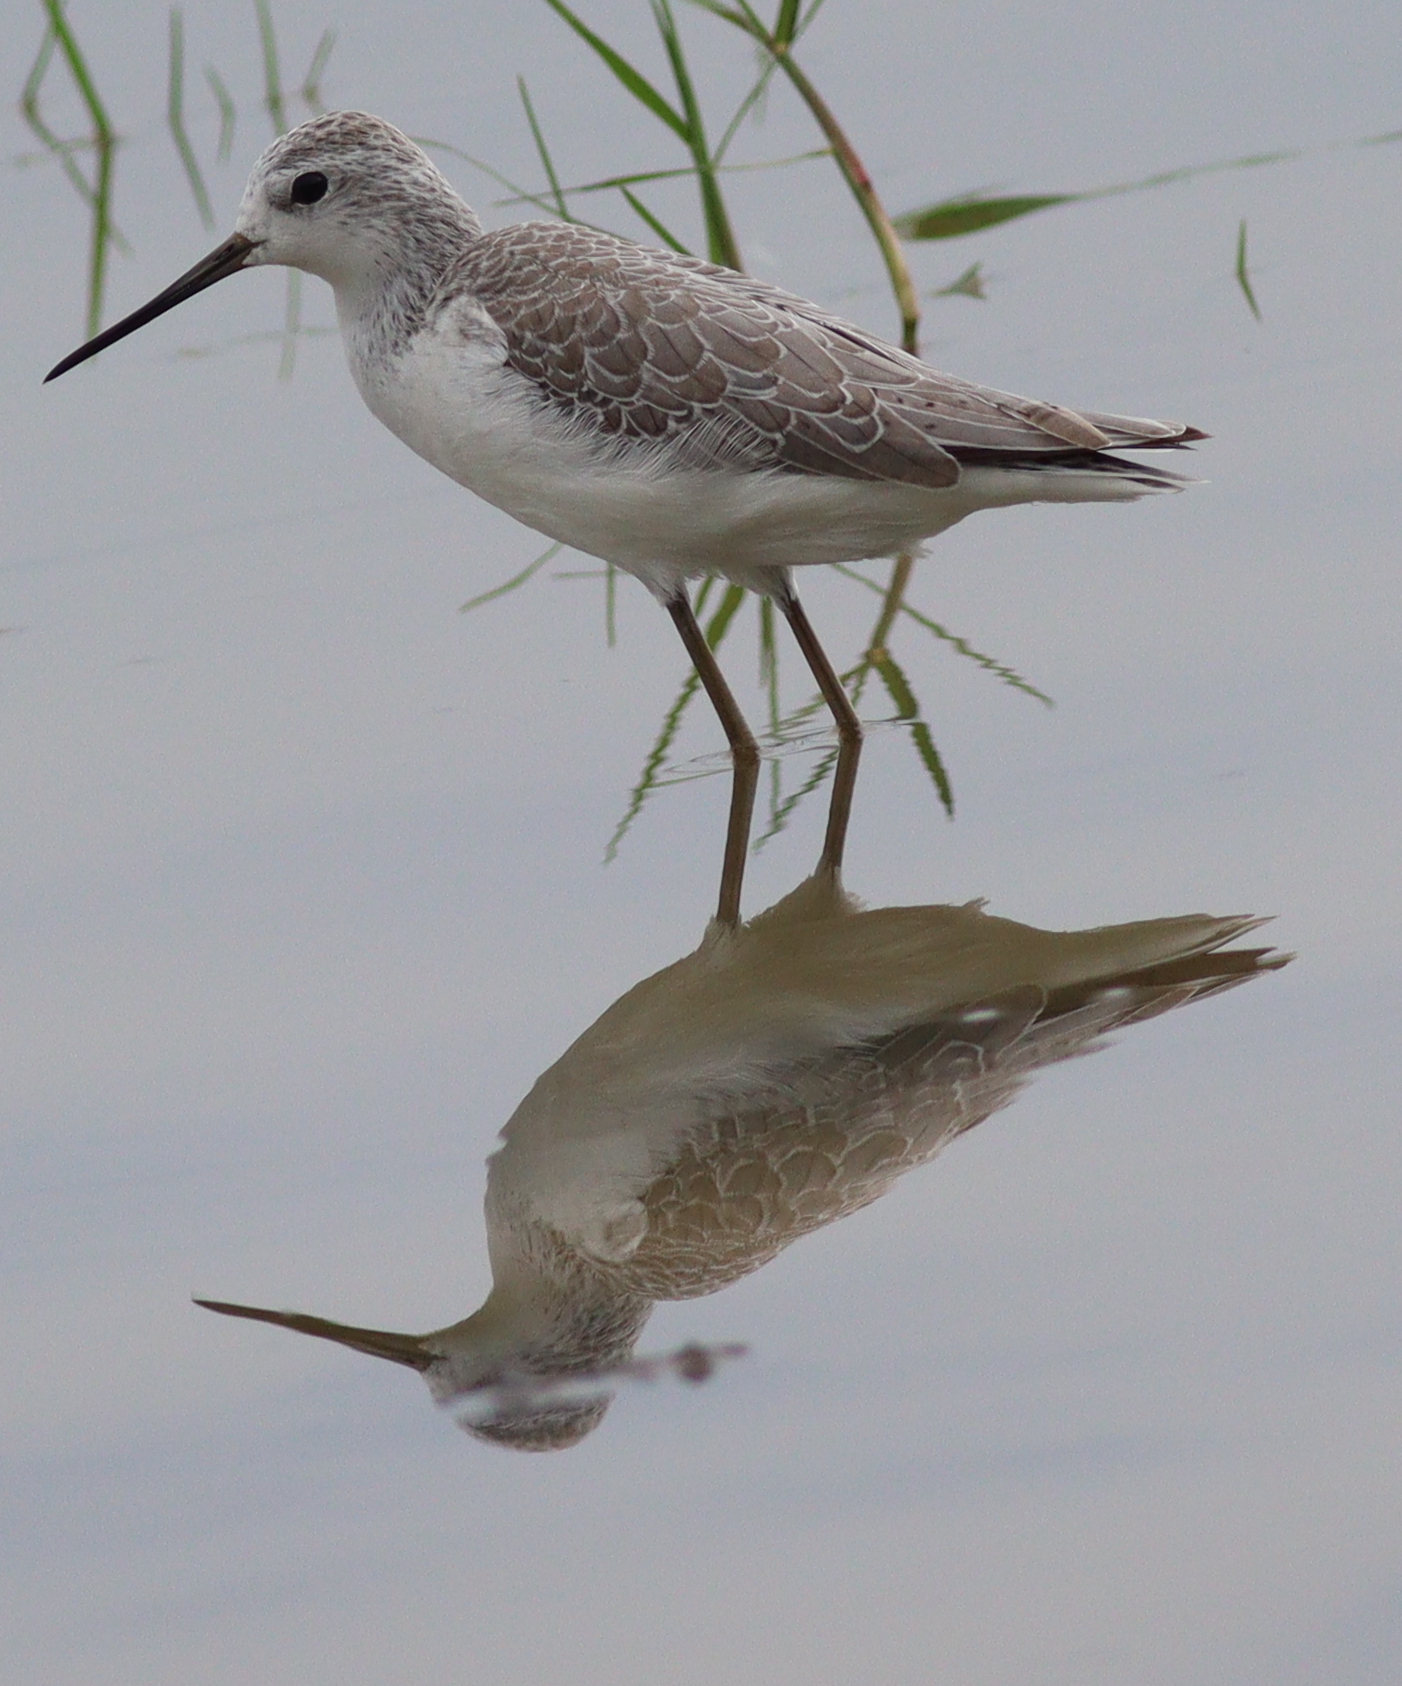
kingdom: Animalia
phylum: Chordata
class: Aves
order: Charadriiformes
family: Scolopacidae
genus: Tringa
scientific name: Tringa stagnatilis
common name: Marsh sandpiper
